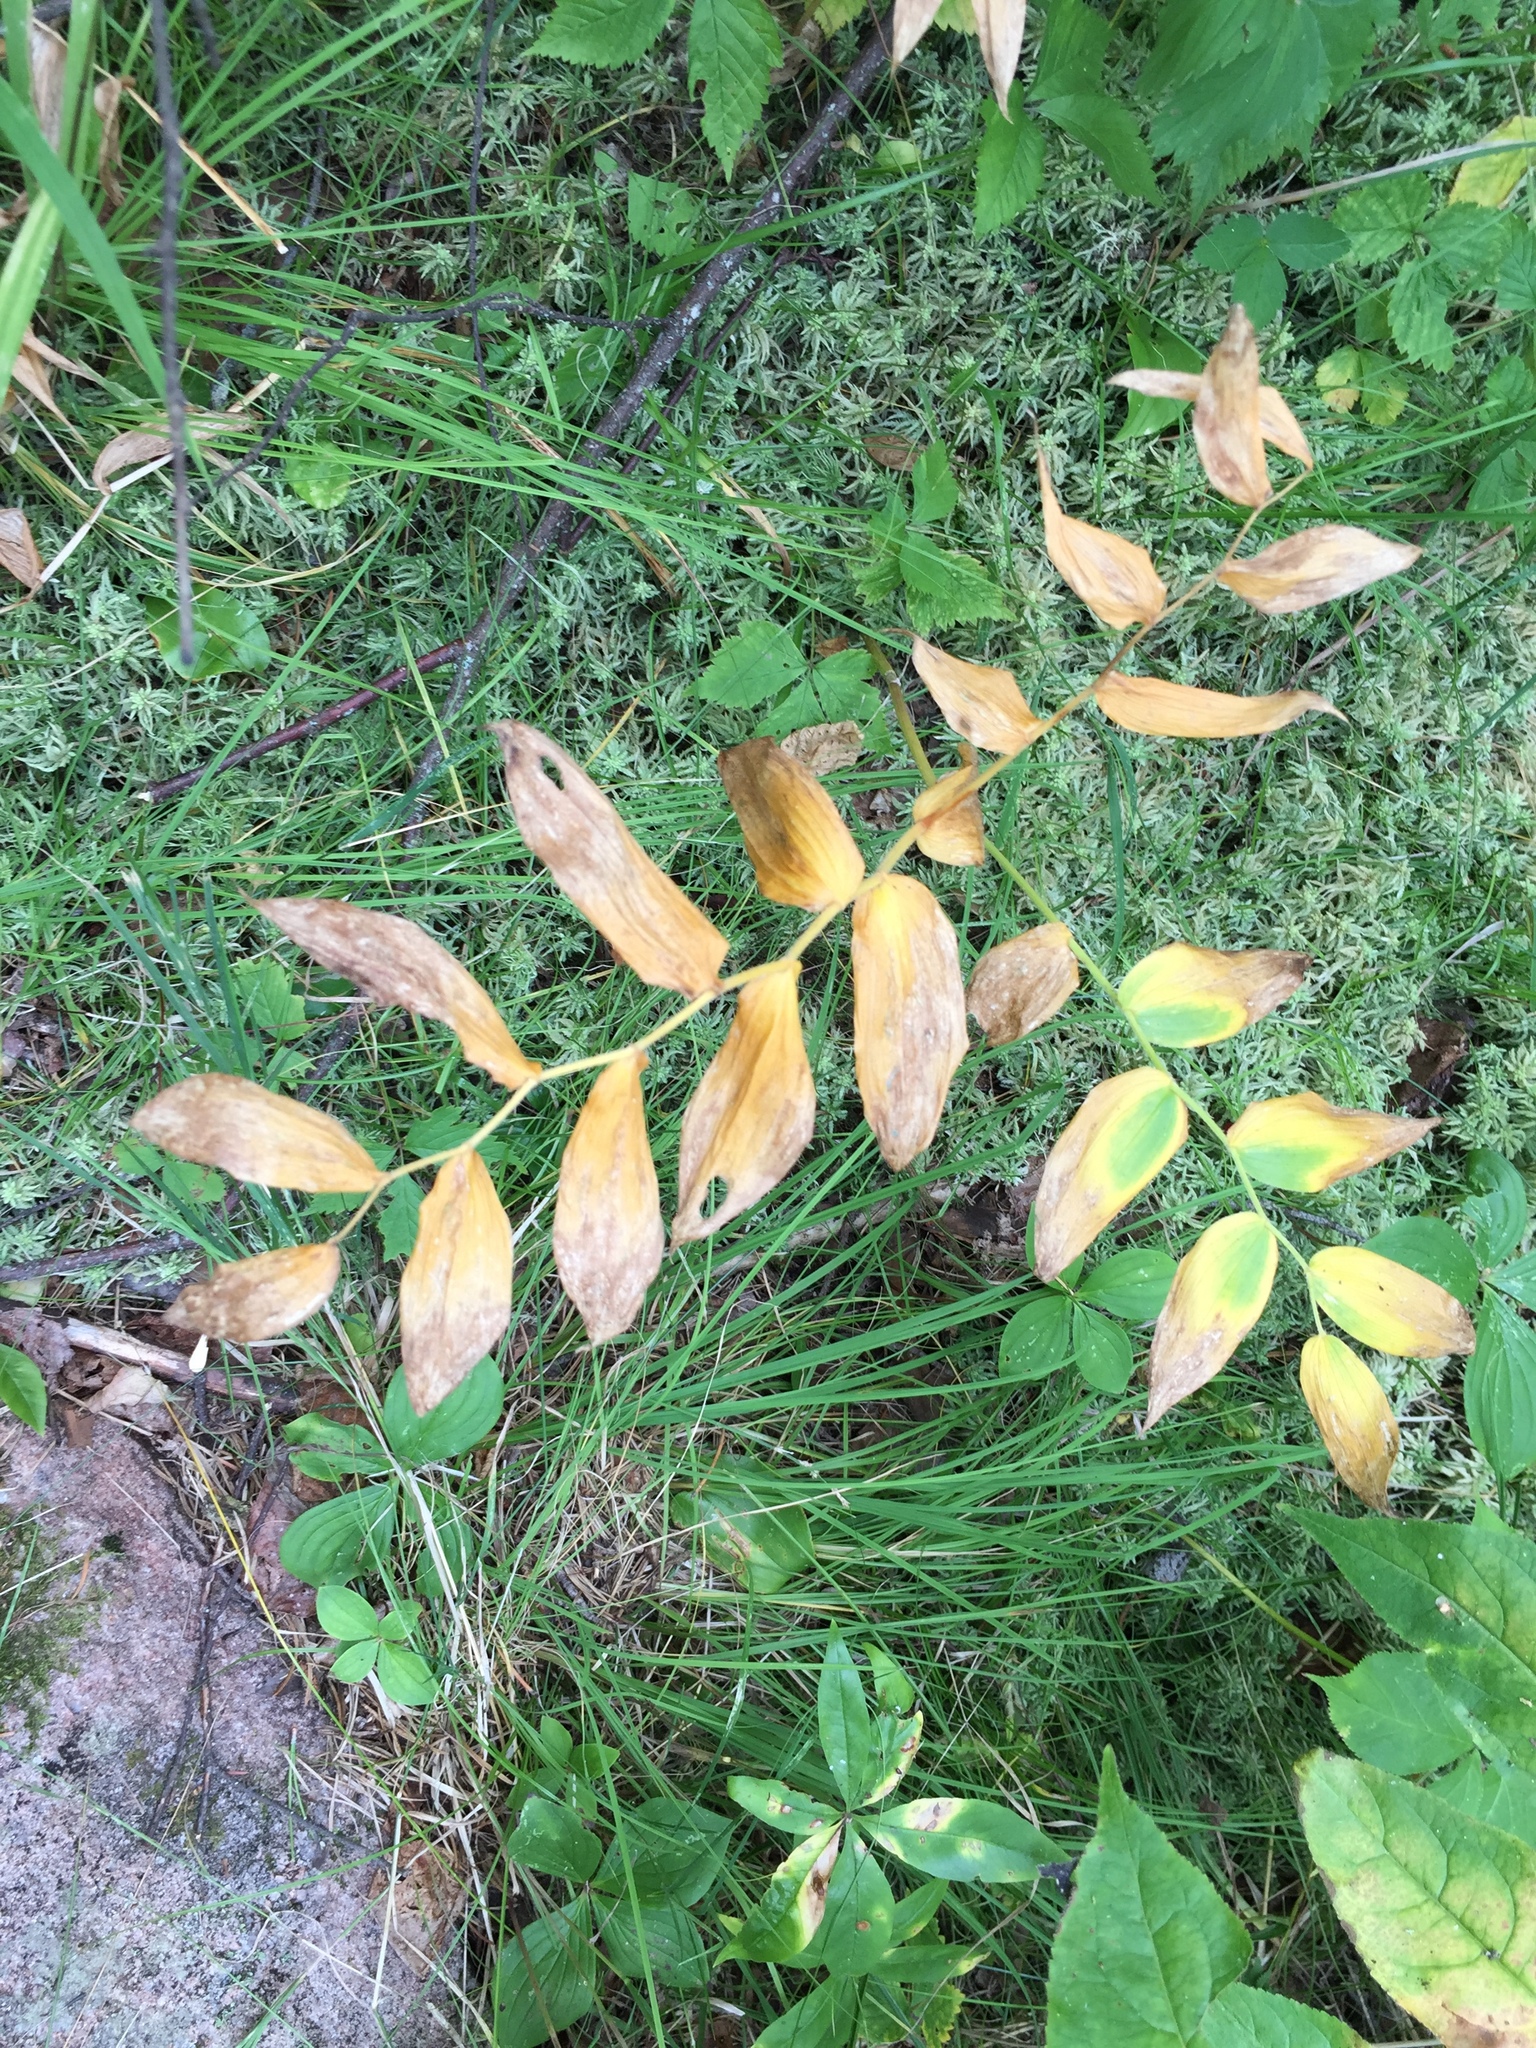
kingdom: Plantae
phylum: Tracheophyta
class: Liliopsida
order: Liliales
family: Liliaceae
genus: Streptopus
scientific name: Streptopus lanceolatus
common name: Rose mandarin
